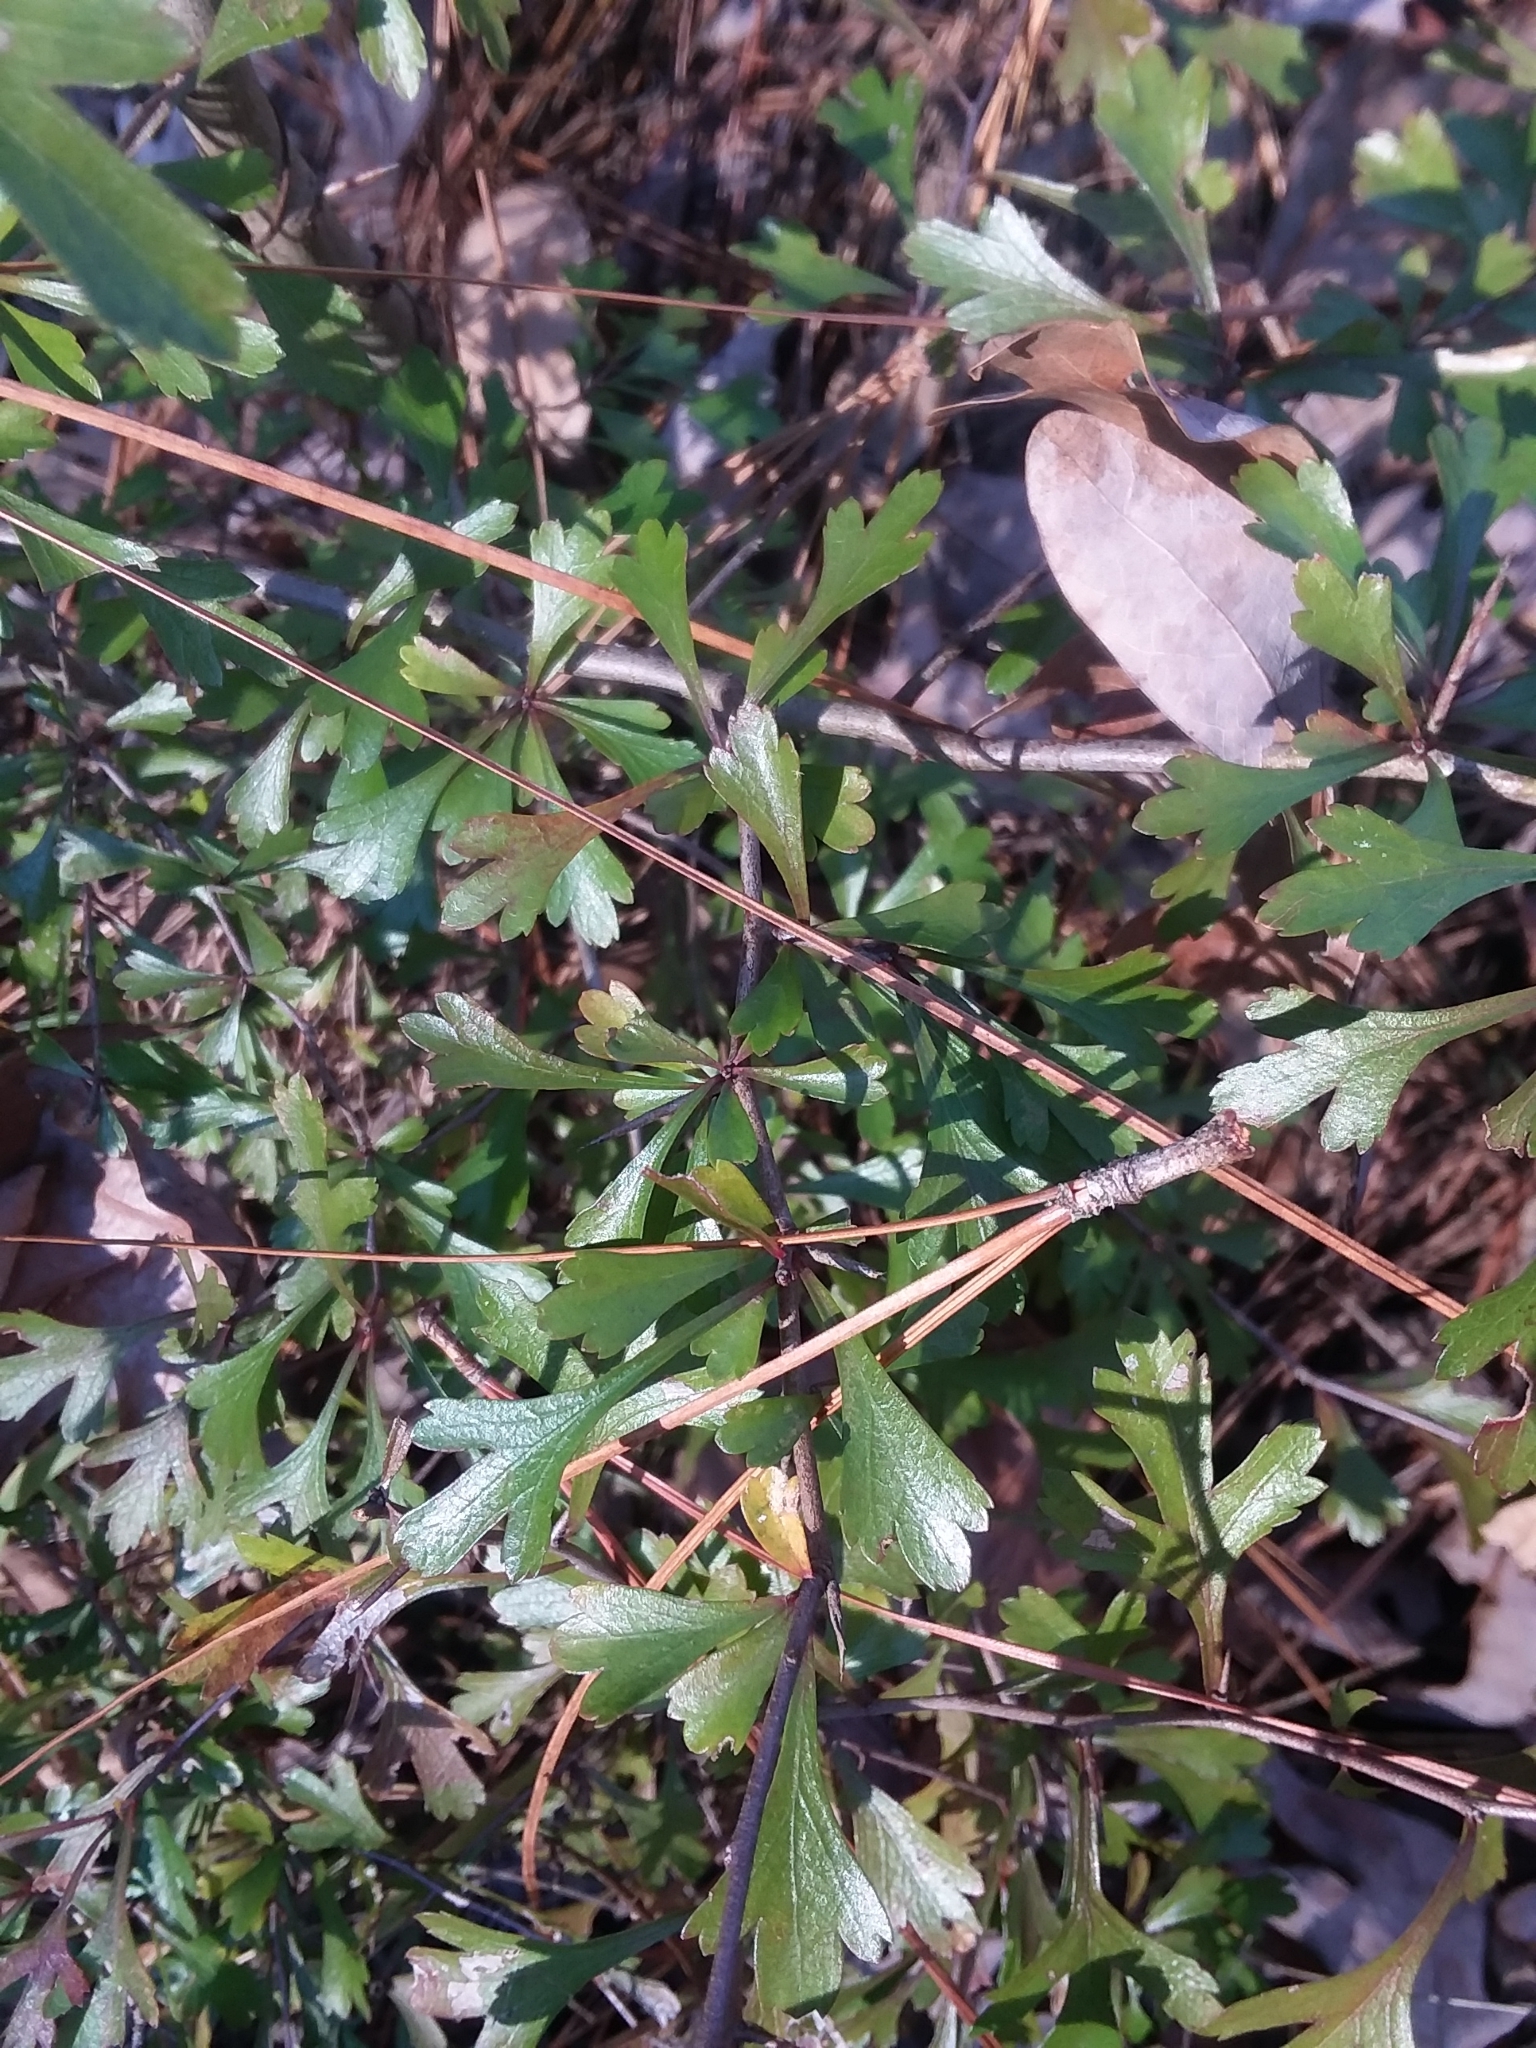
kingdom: Plantae
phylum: Tracheophyta
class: Magnoliopsida
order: Rosales
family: Rosaceae
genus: Crataegus
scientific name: Crataegus spathulata
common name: Littlehip hawthorn
